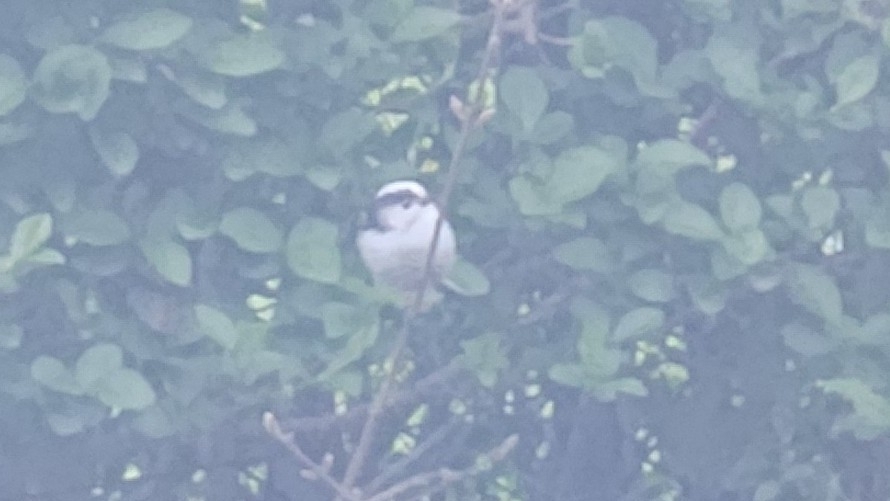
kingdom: Animalia
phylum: Chordata
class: Aves
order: Passeriformes
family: Aegithalidae
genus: Aegithalos
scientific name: Aegithalos caudatus
